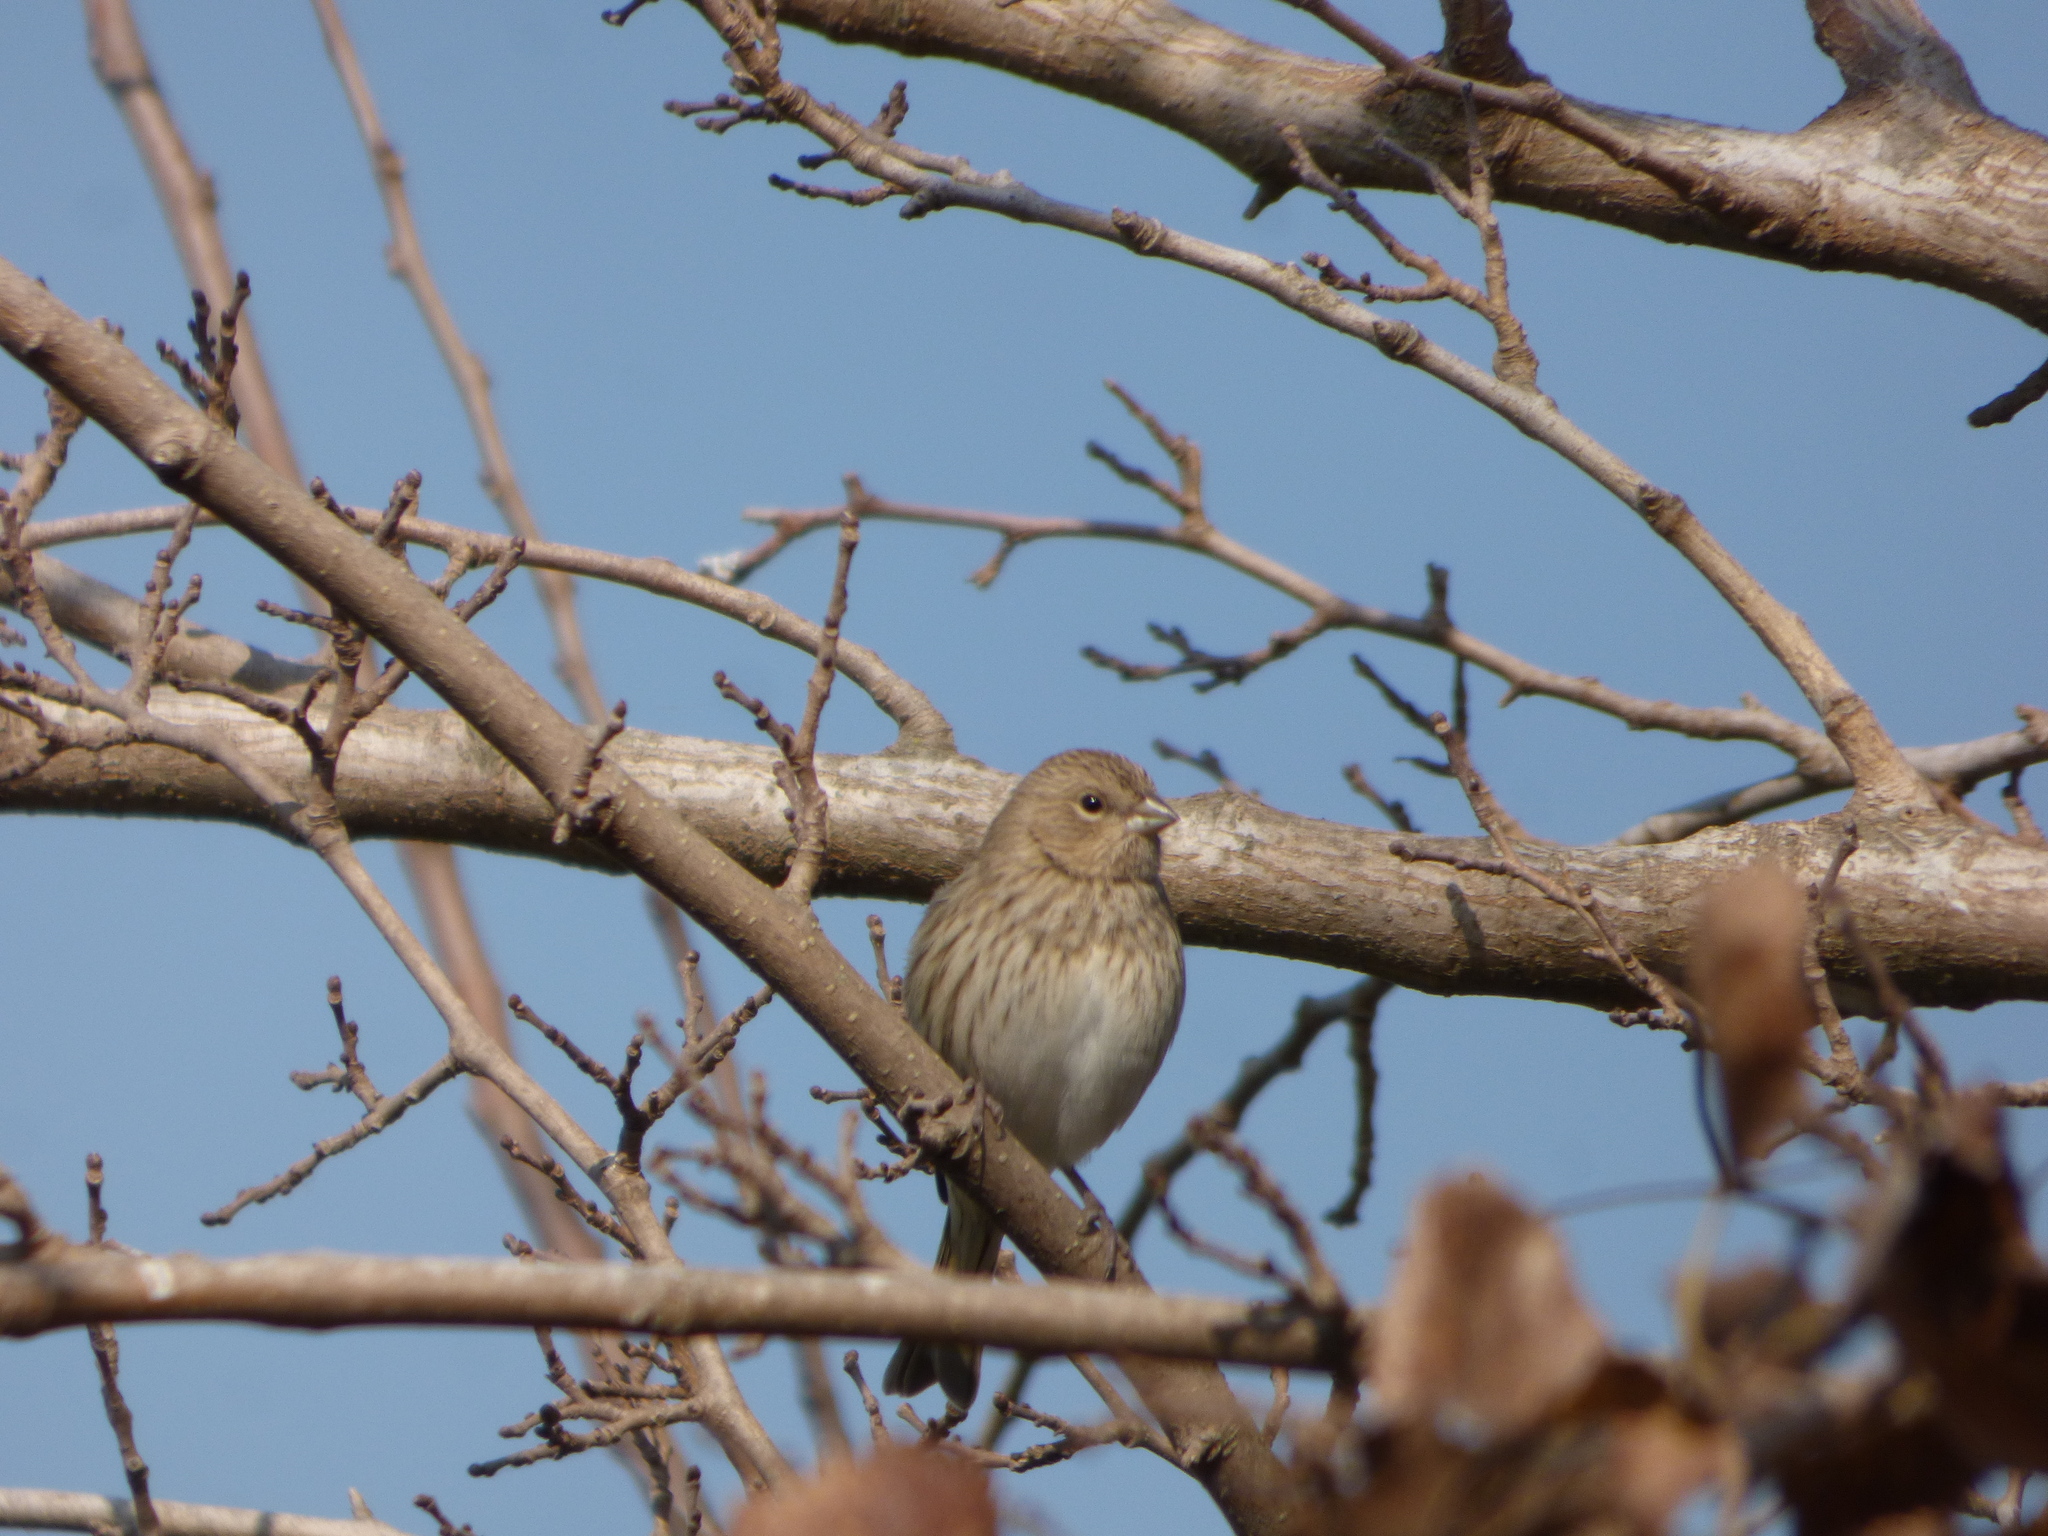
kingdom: Animalia
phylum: Chordata
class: Aves
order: Passeriformes
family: Thraupidae
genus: Sicalis
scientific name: Sicalis flaveola
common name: Saffron finch
